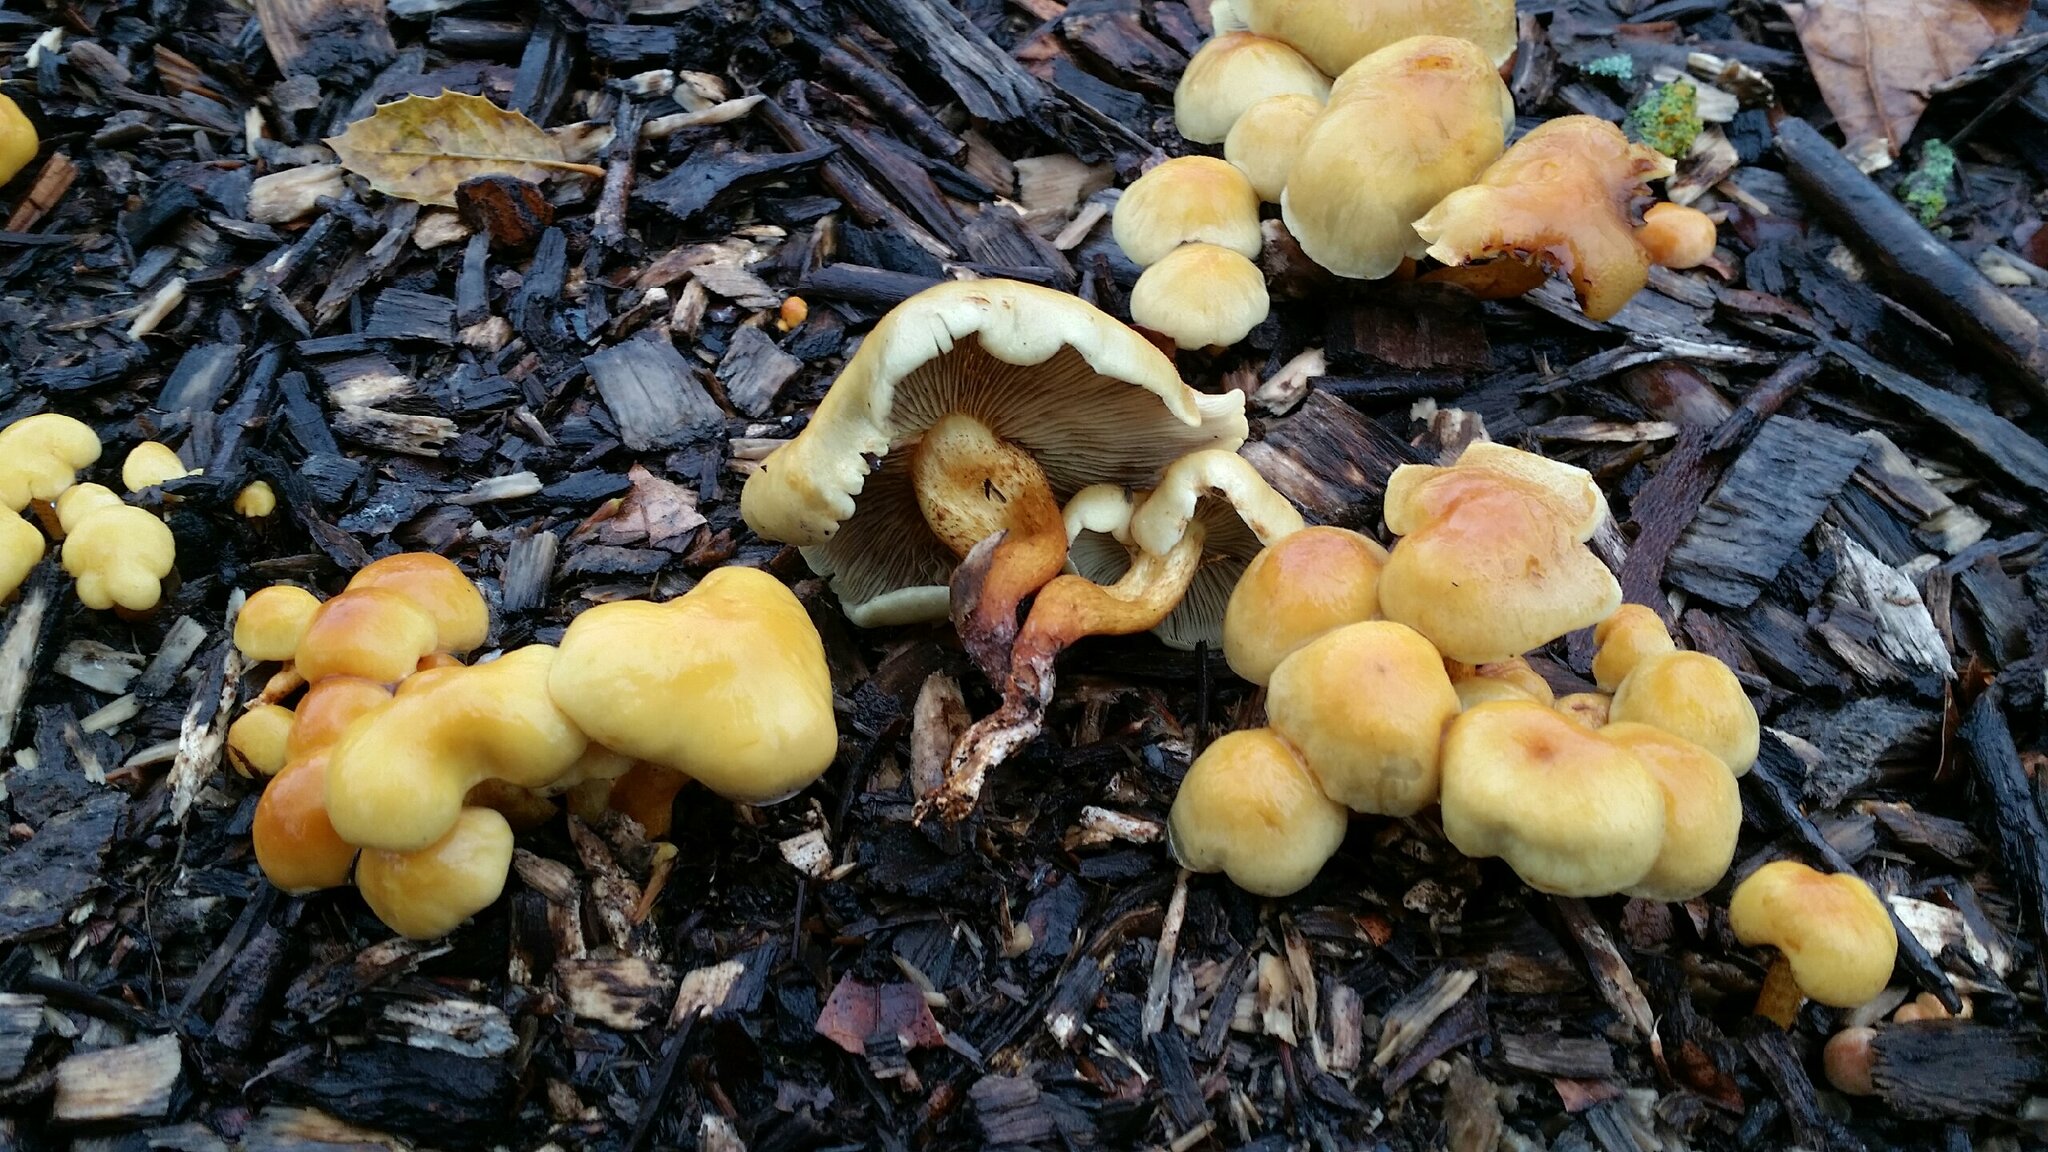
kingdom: Fungi
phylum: Basidiomycota
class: Agaricomycetes
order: Agaricales
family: Strophariaceae
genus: Hypholoma
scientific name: Hypholoma fasciculare
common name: Sulphur tuft
